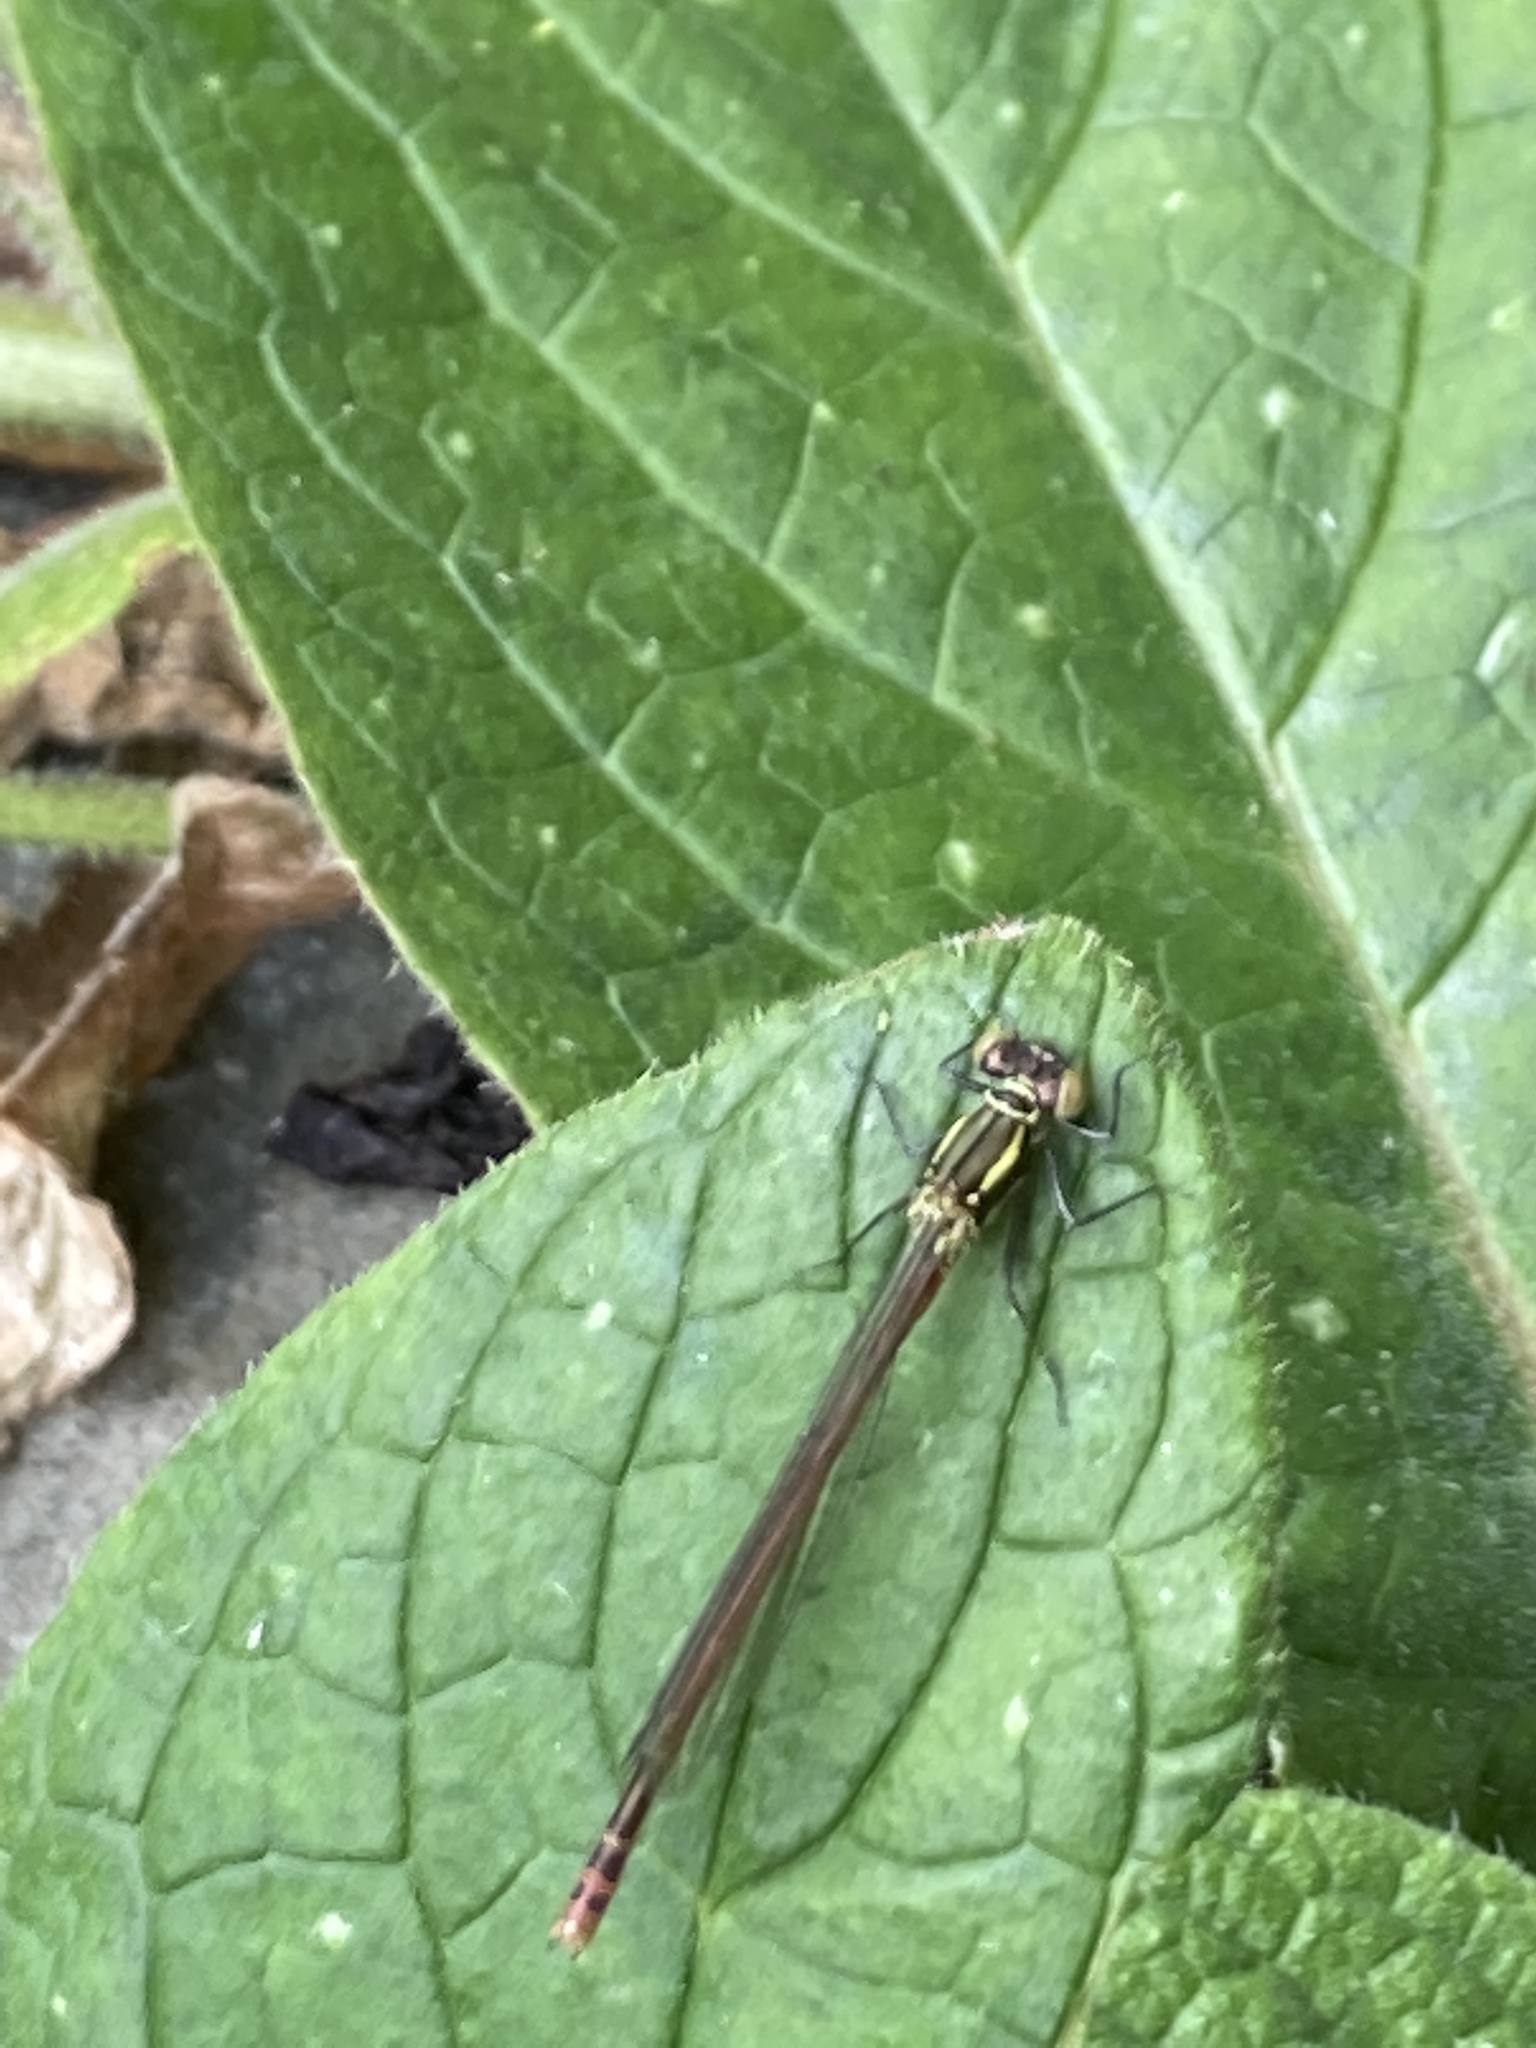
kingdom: Animalia
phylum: Arthropoda
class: Insecta
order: Odonata
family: Coenagrionidae
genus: Pyrrhosoma
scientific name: Pyrrhosoma nymphula
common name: Large red damsel
